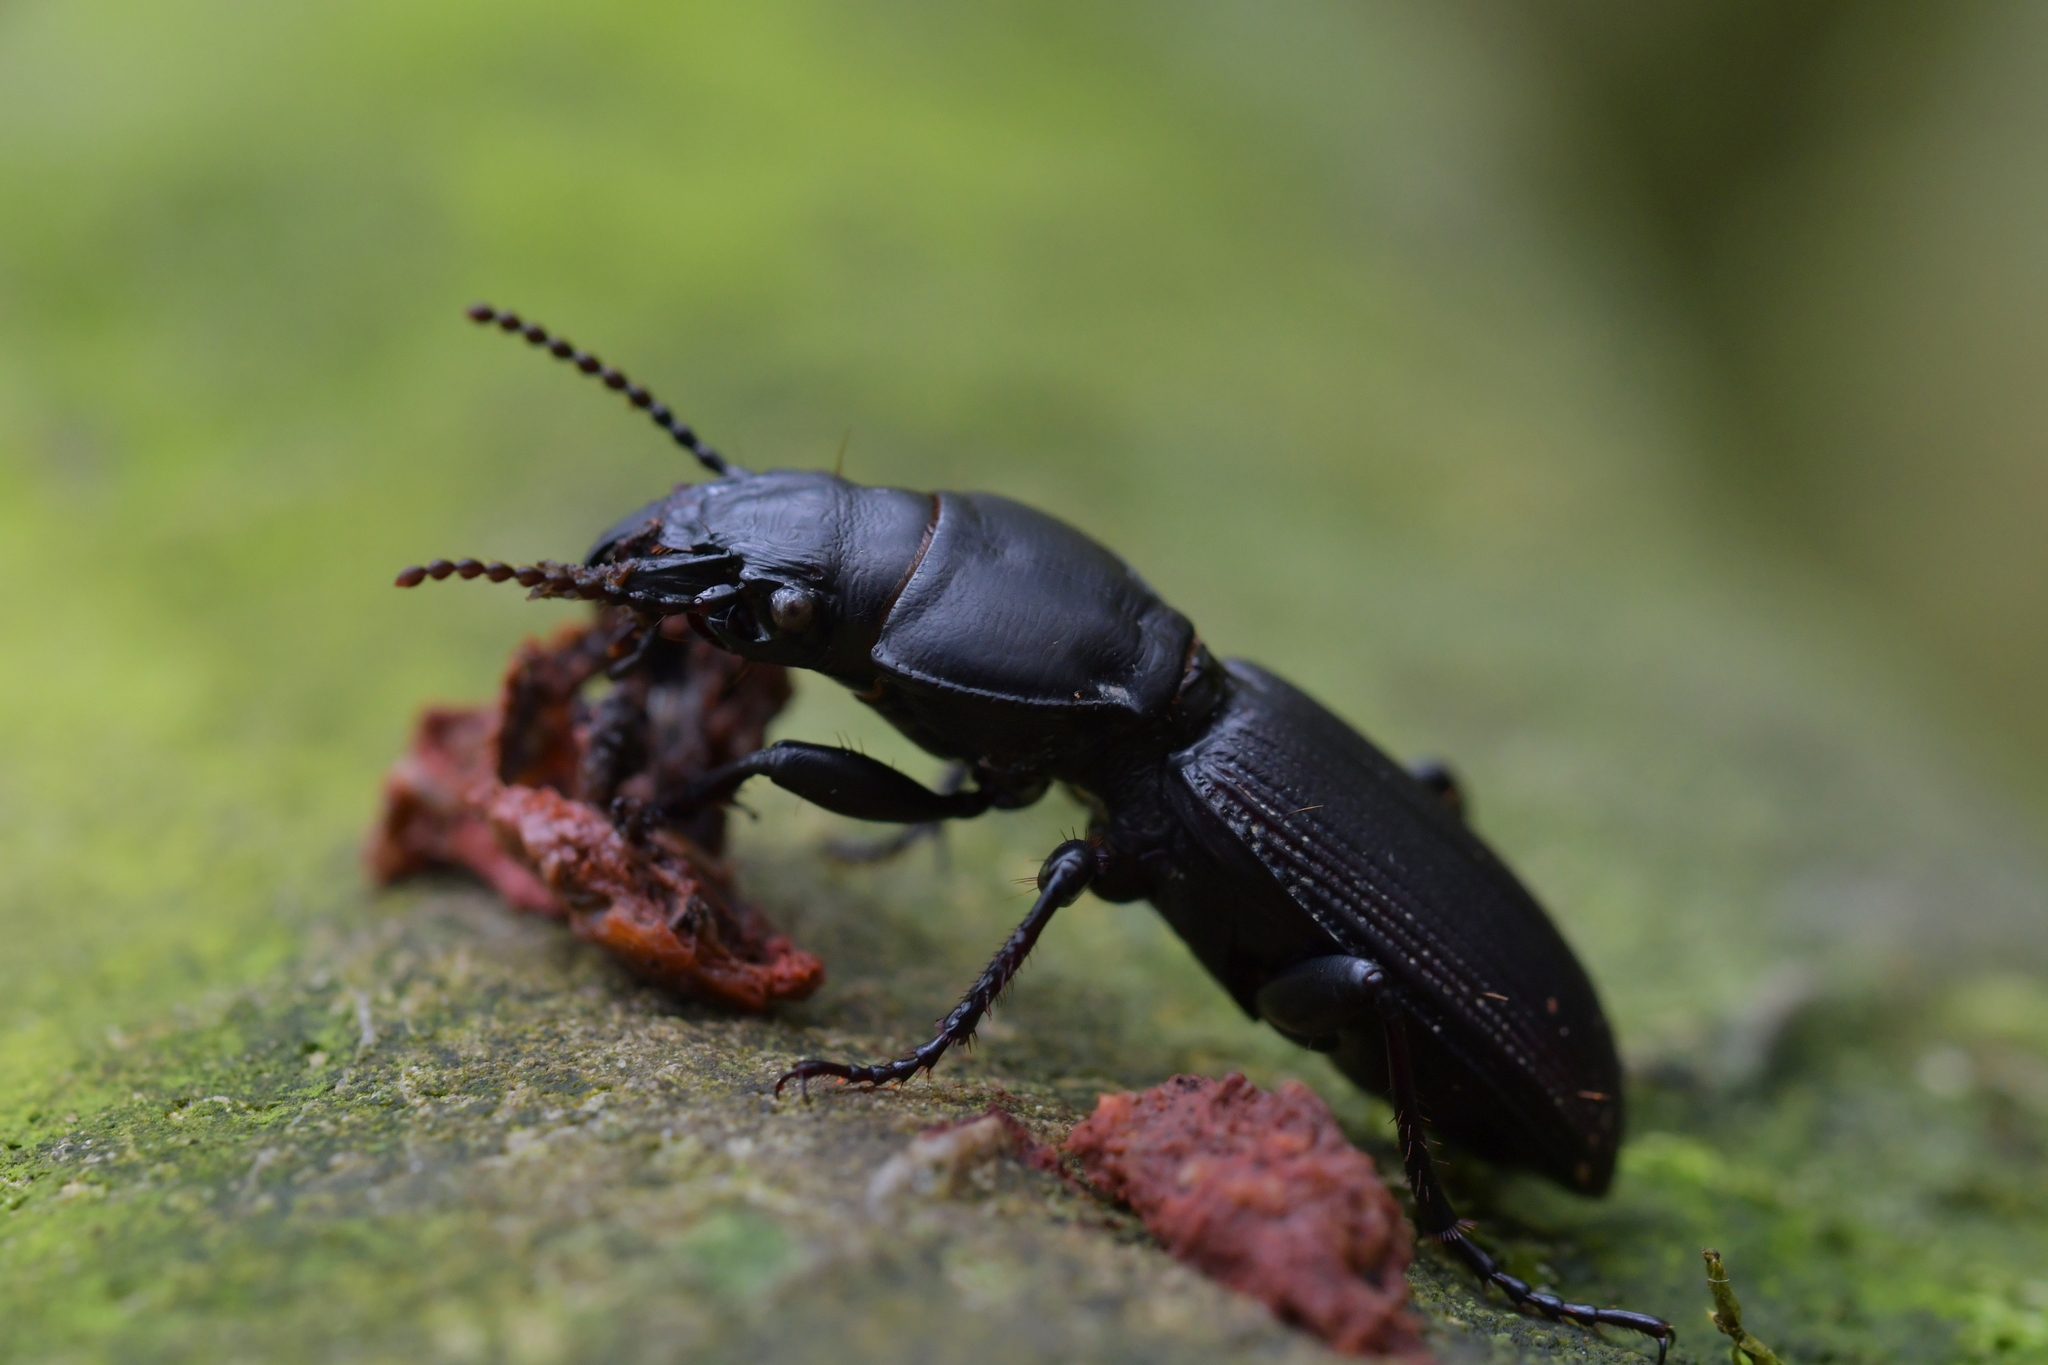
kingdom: Animalia
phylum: Arthropoda
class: Insecta
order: Coleoptera
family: Carabidae
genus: Mecodema
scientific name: Mecodema simplex
